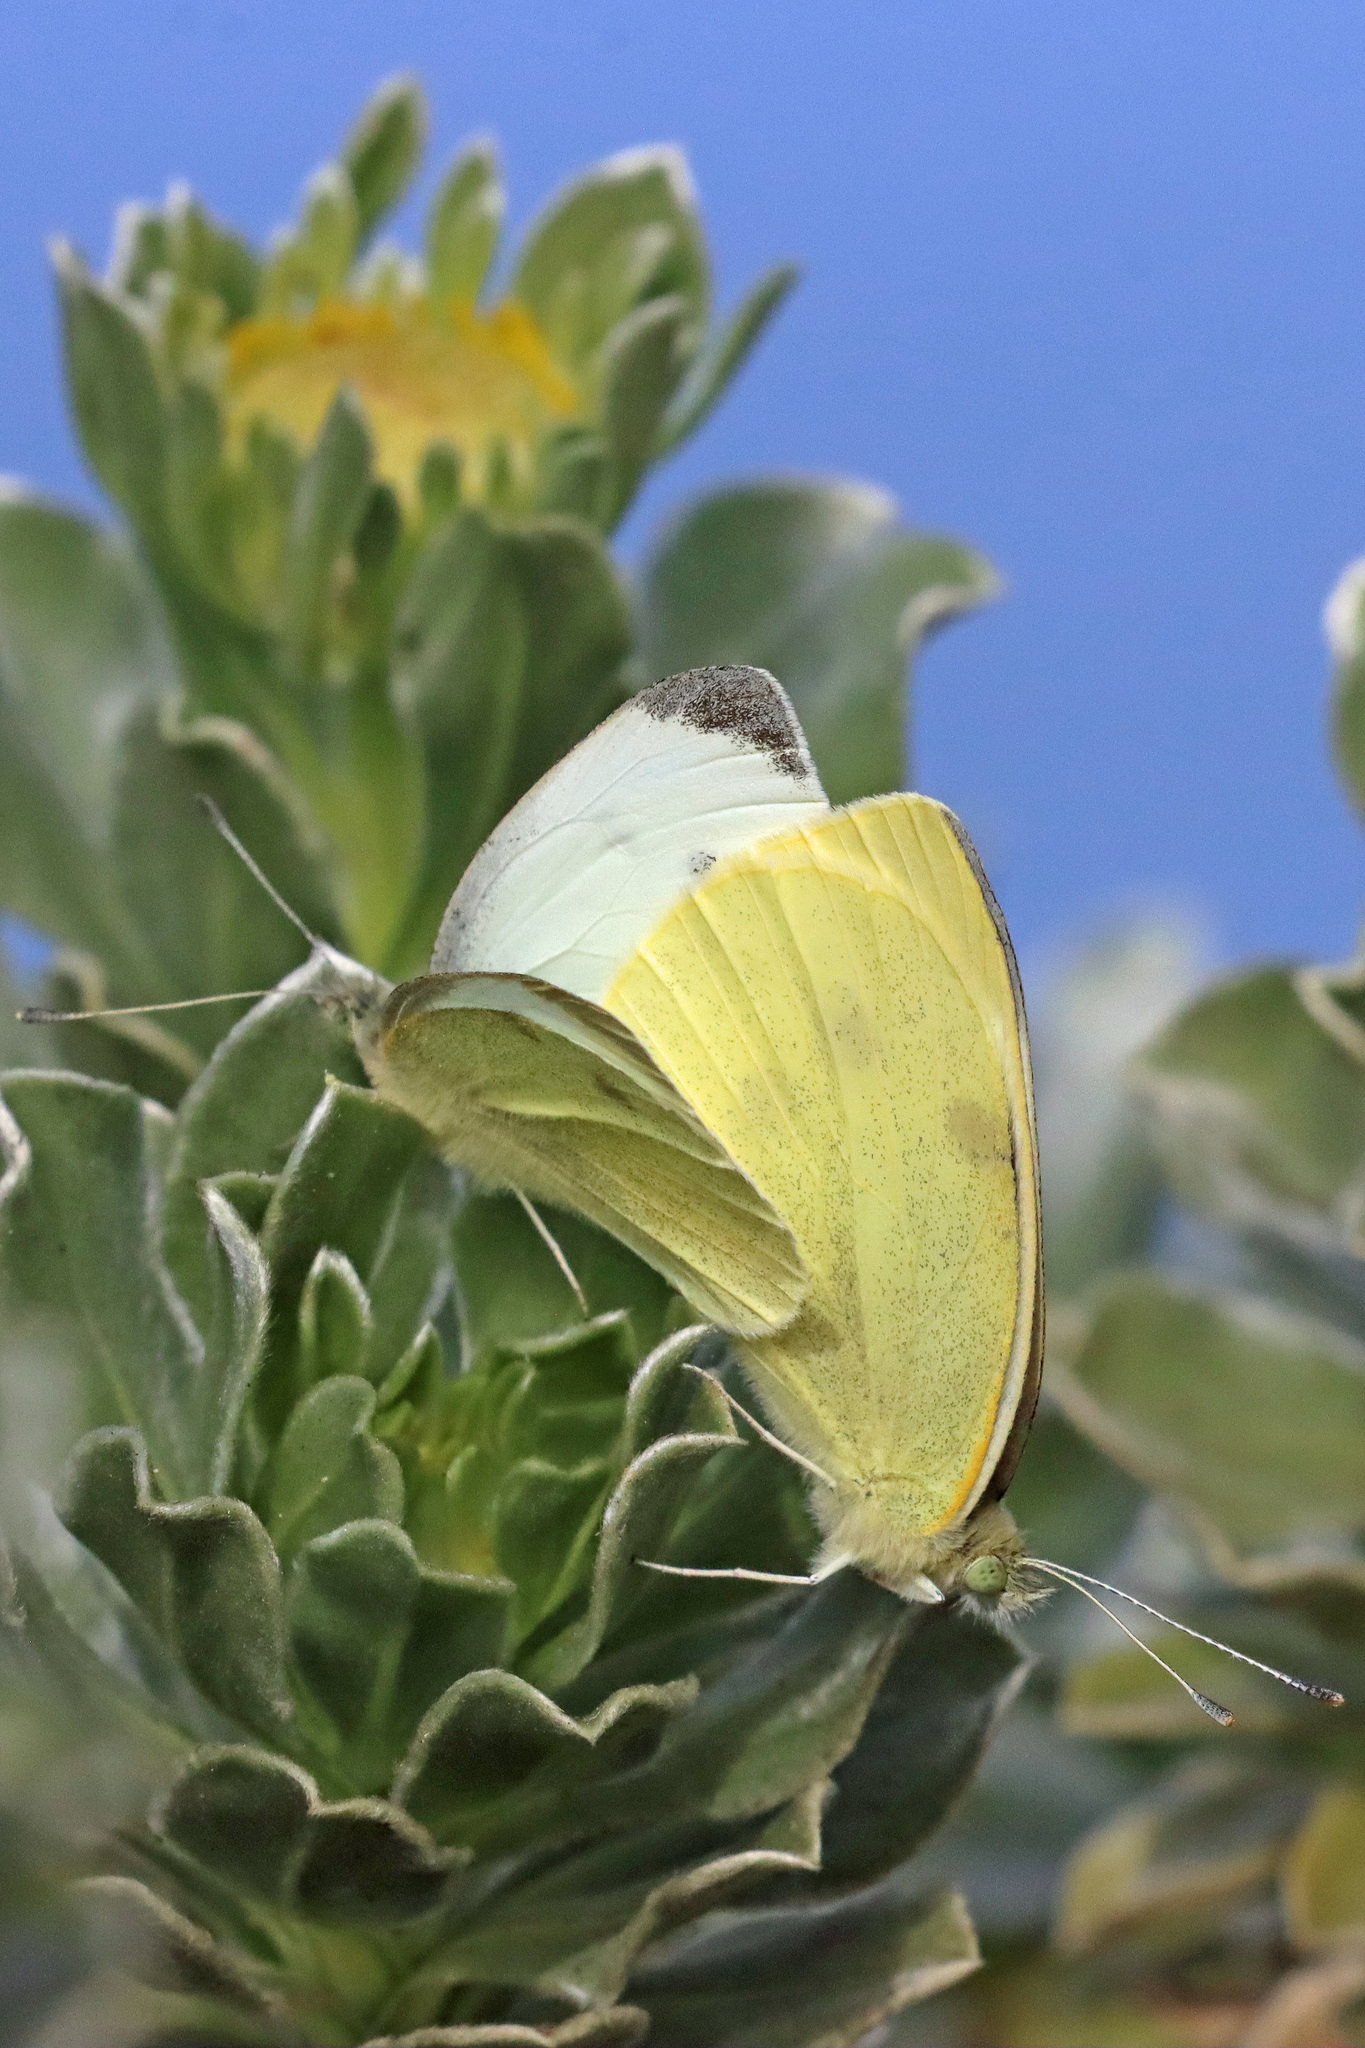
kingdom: Animalia
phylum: Arthropoda
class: Insecta
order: Lepidoptera
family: Pieridae
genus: Pieris
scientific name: Pieris rapae
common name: Small white
